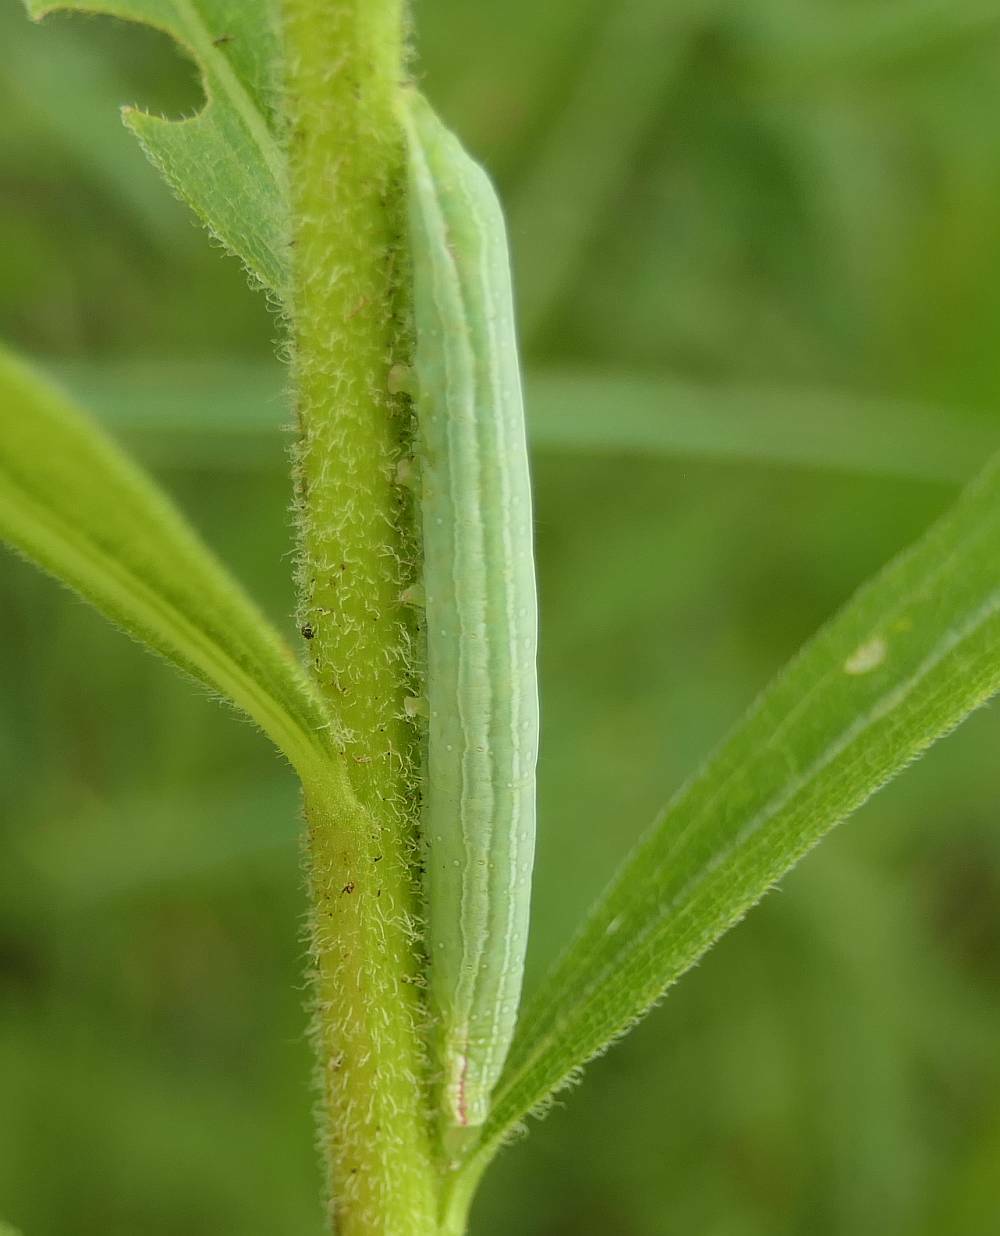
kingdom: Animalia
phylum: Arthropoda
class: Insecta
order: Lepidoptera
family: Noctuidae
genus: Leuconycta
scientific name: Leuconycta diphteroides
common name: Green leuconycta moth
